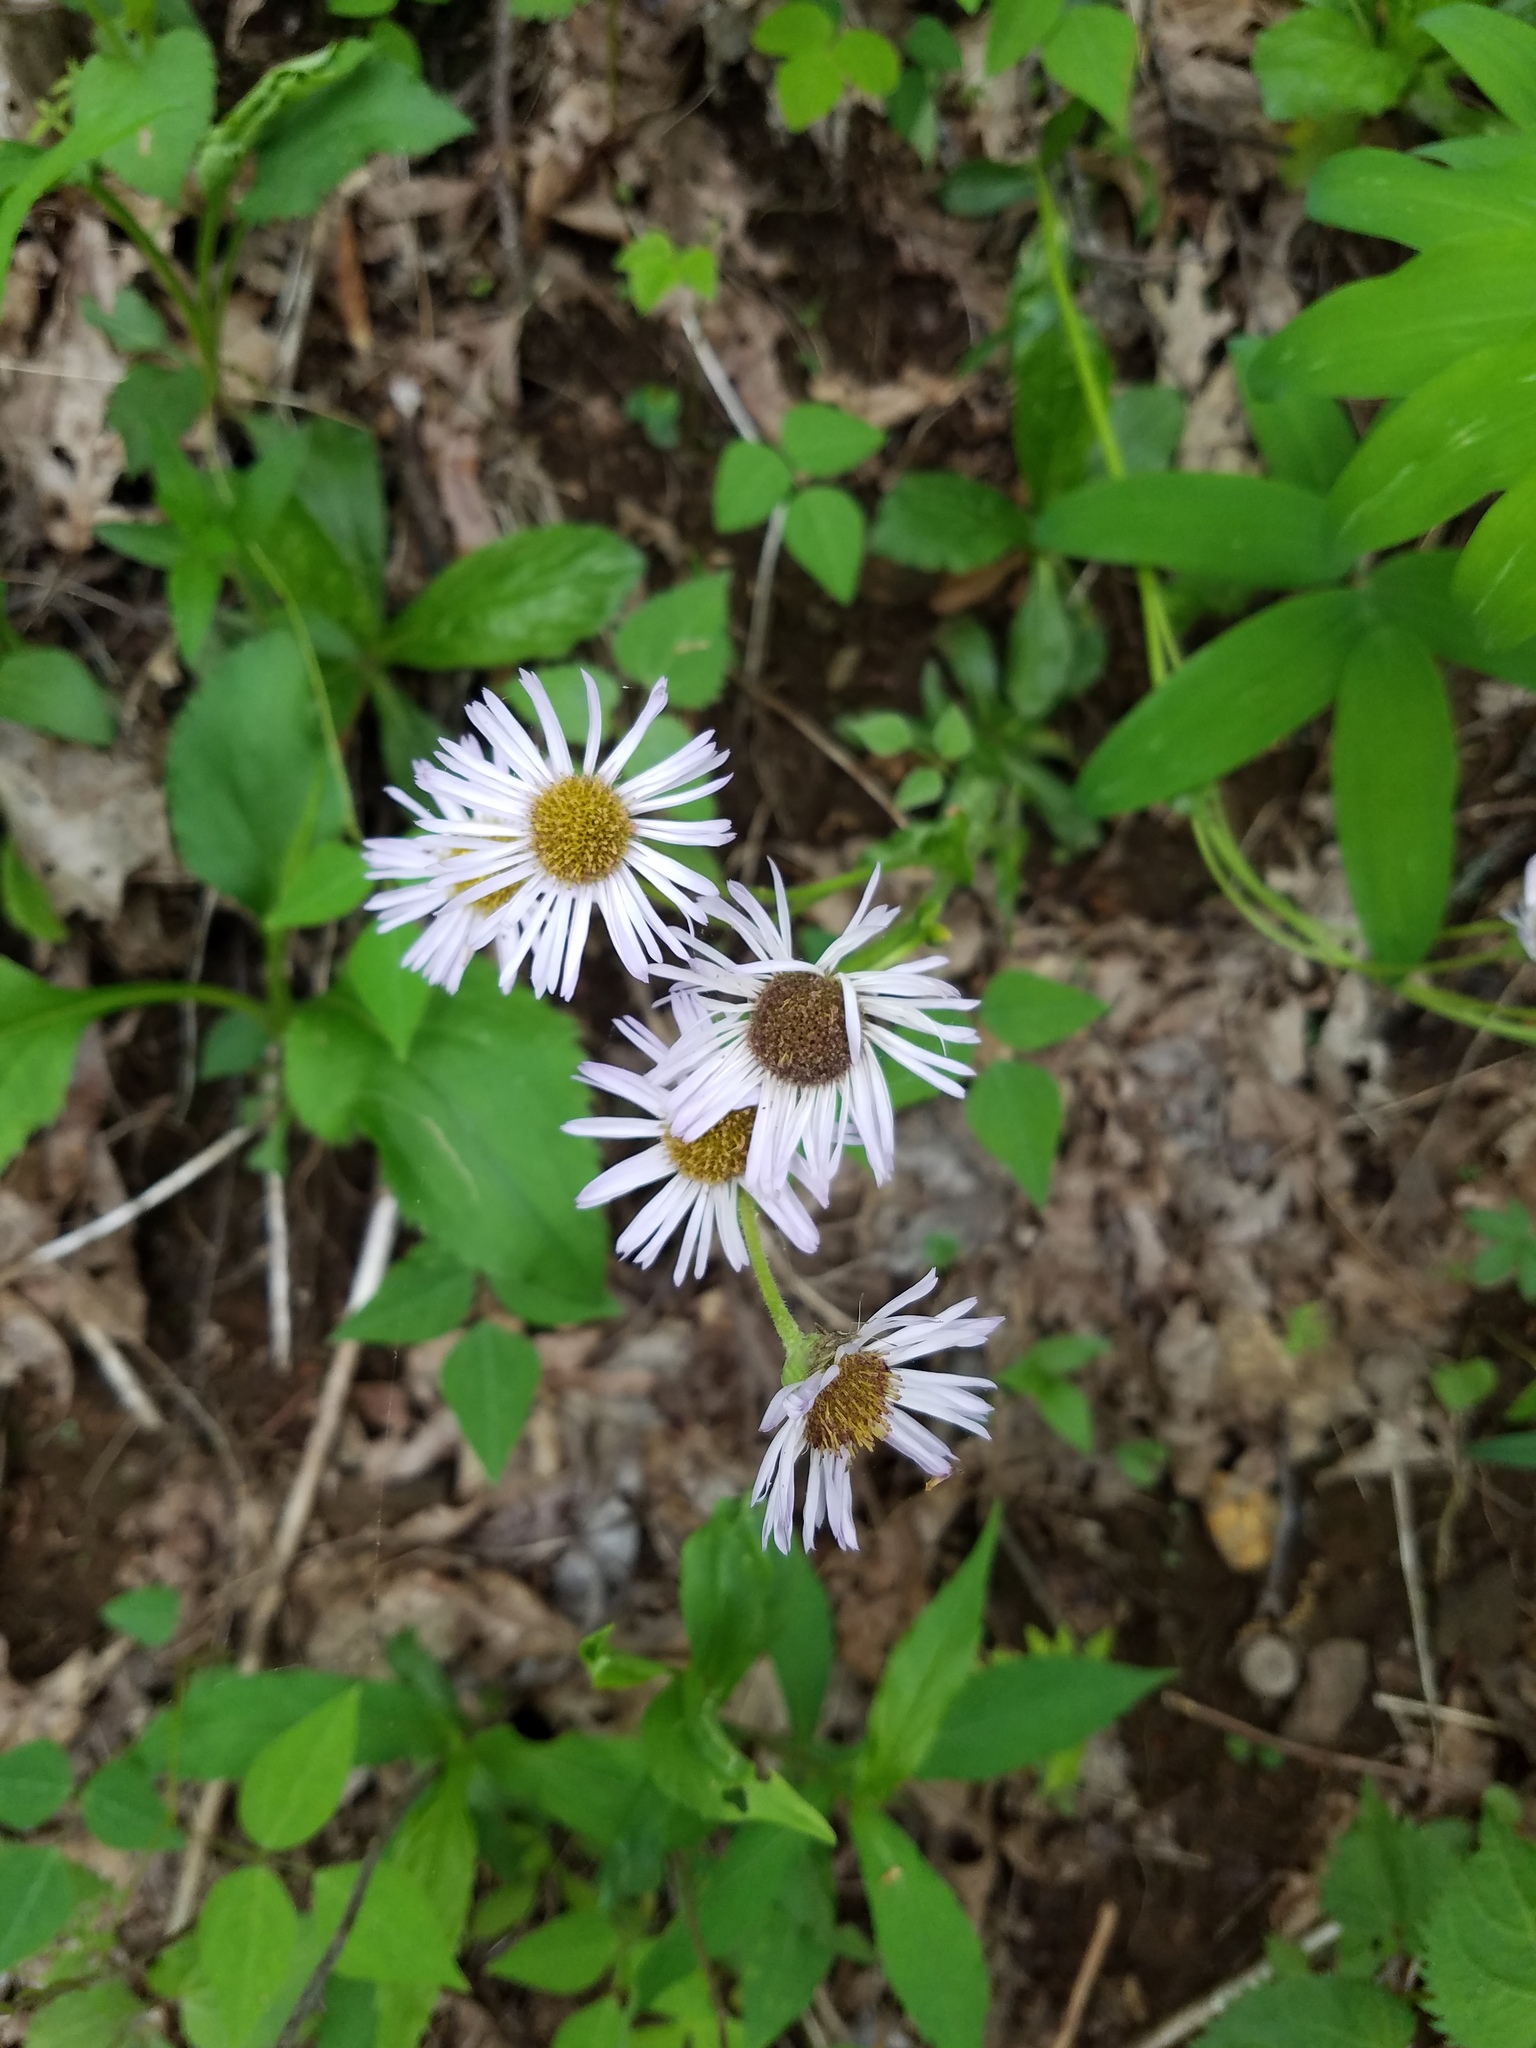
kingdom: Plantae
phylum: Tracheophyta
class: Magnoliopsida
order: Asterales
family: Asteraceae
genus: Erigeron
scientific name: Erigeron pulchellus
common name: Hairy fleabane
